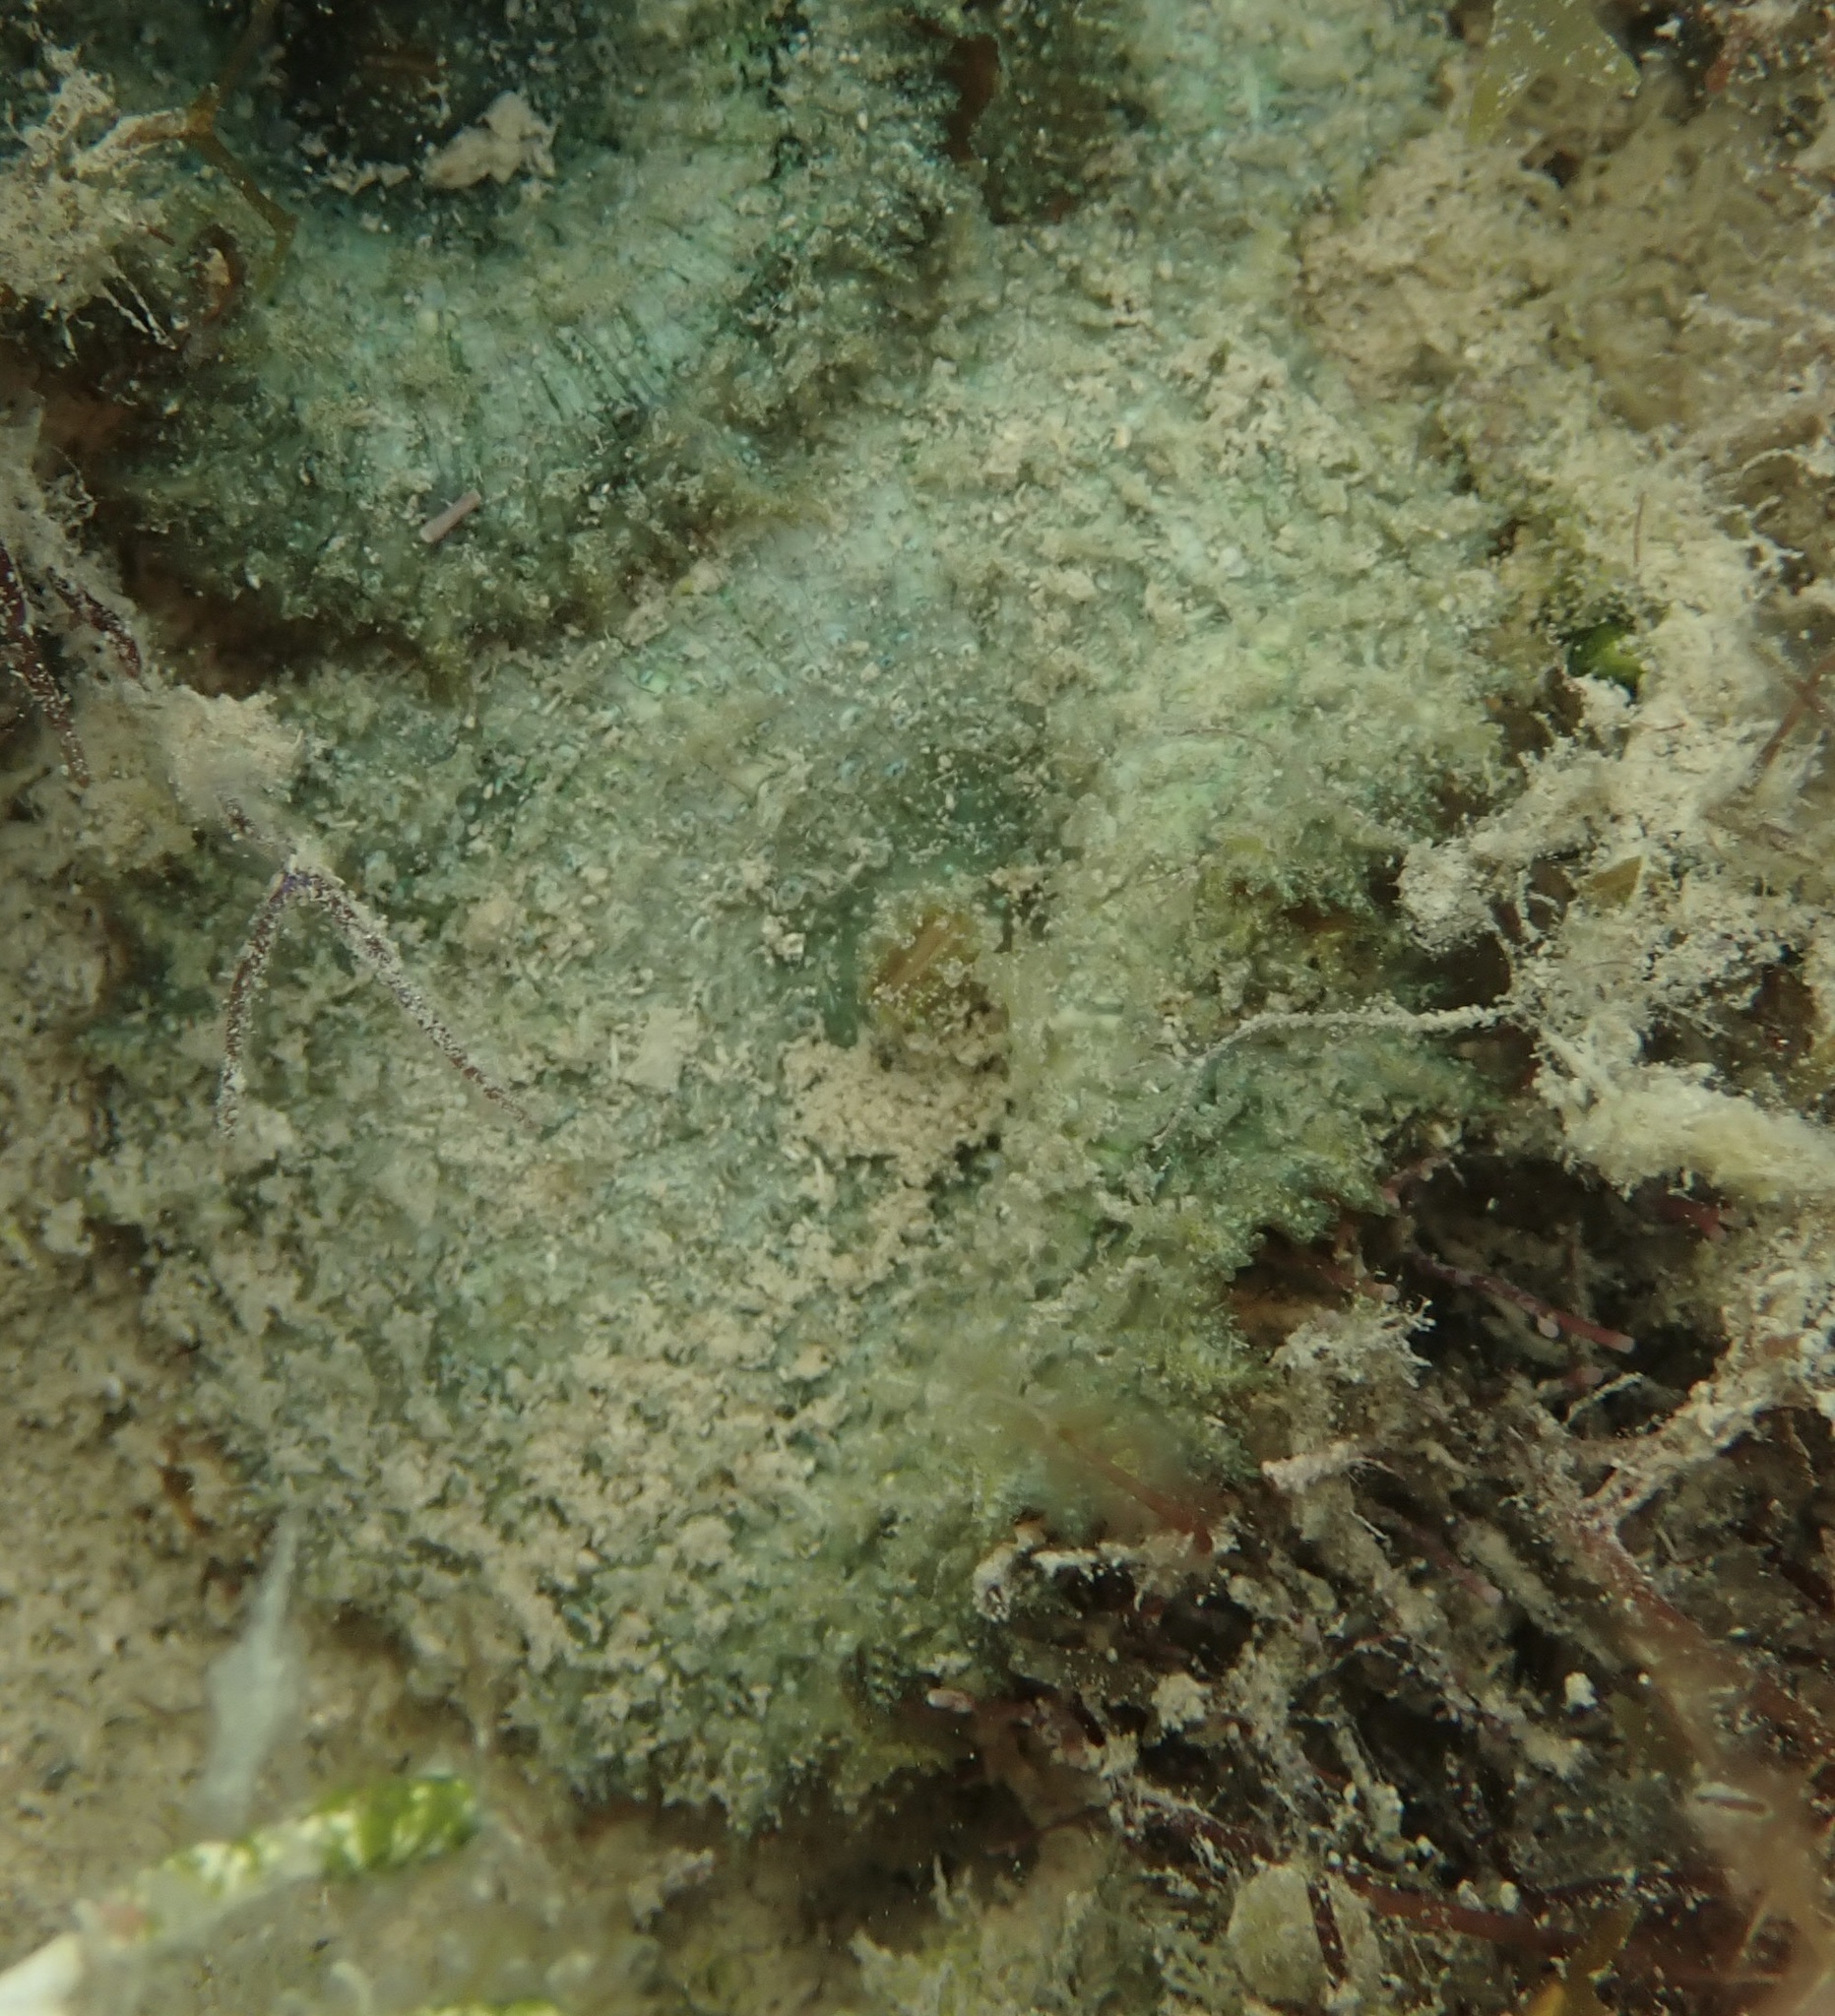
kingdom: Animalia
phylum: Cnidaria
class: Anthozoa
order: Corallimorpharia
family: Discosomidae
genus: Discosoma
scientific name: Discosoma carlgreni
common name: Forked-tentacle corallimorpharian
